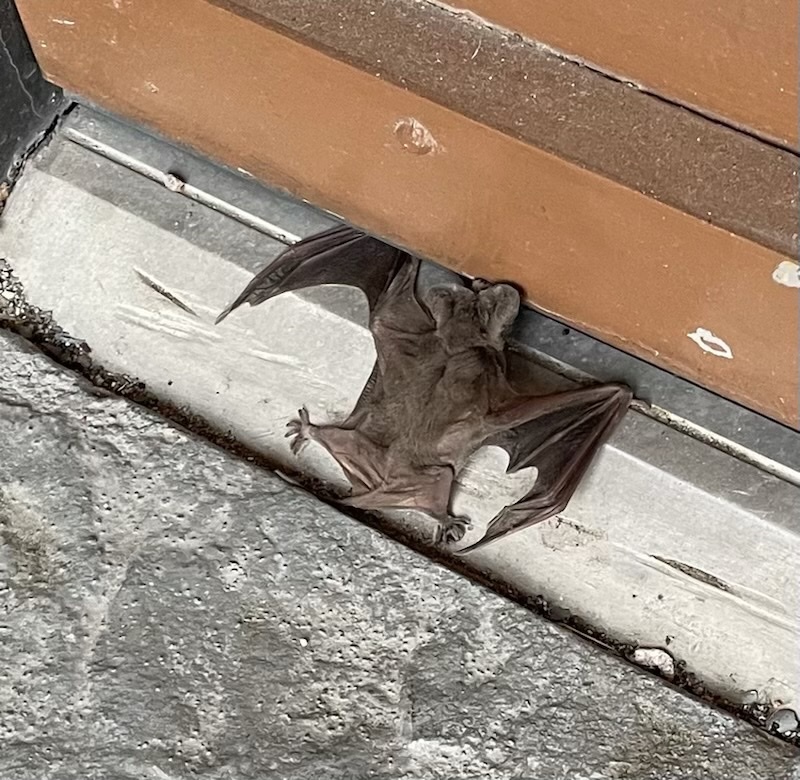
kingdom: Animalia
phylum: Chordata
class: Mammalia
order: Chiroptera
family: Molossidae
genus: Tadarida
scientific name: Tadarida brasiliensis
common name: Mexican free-tailed bat
